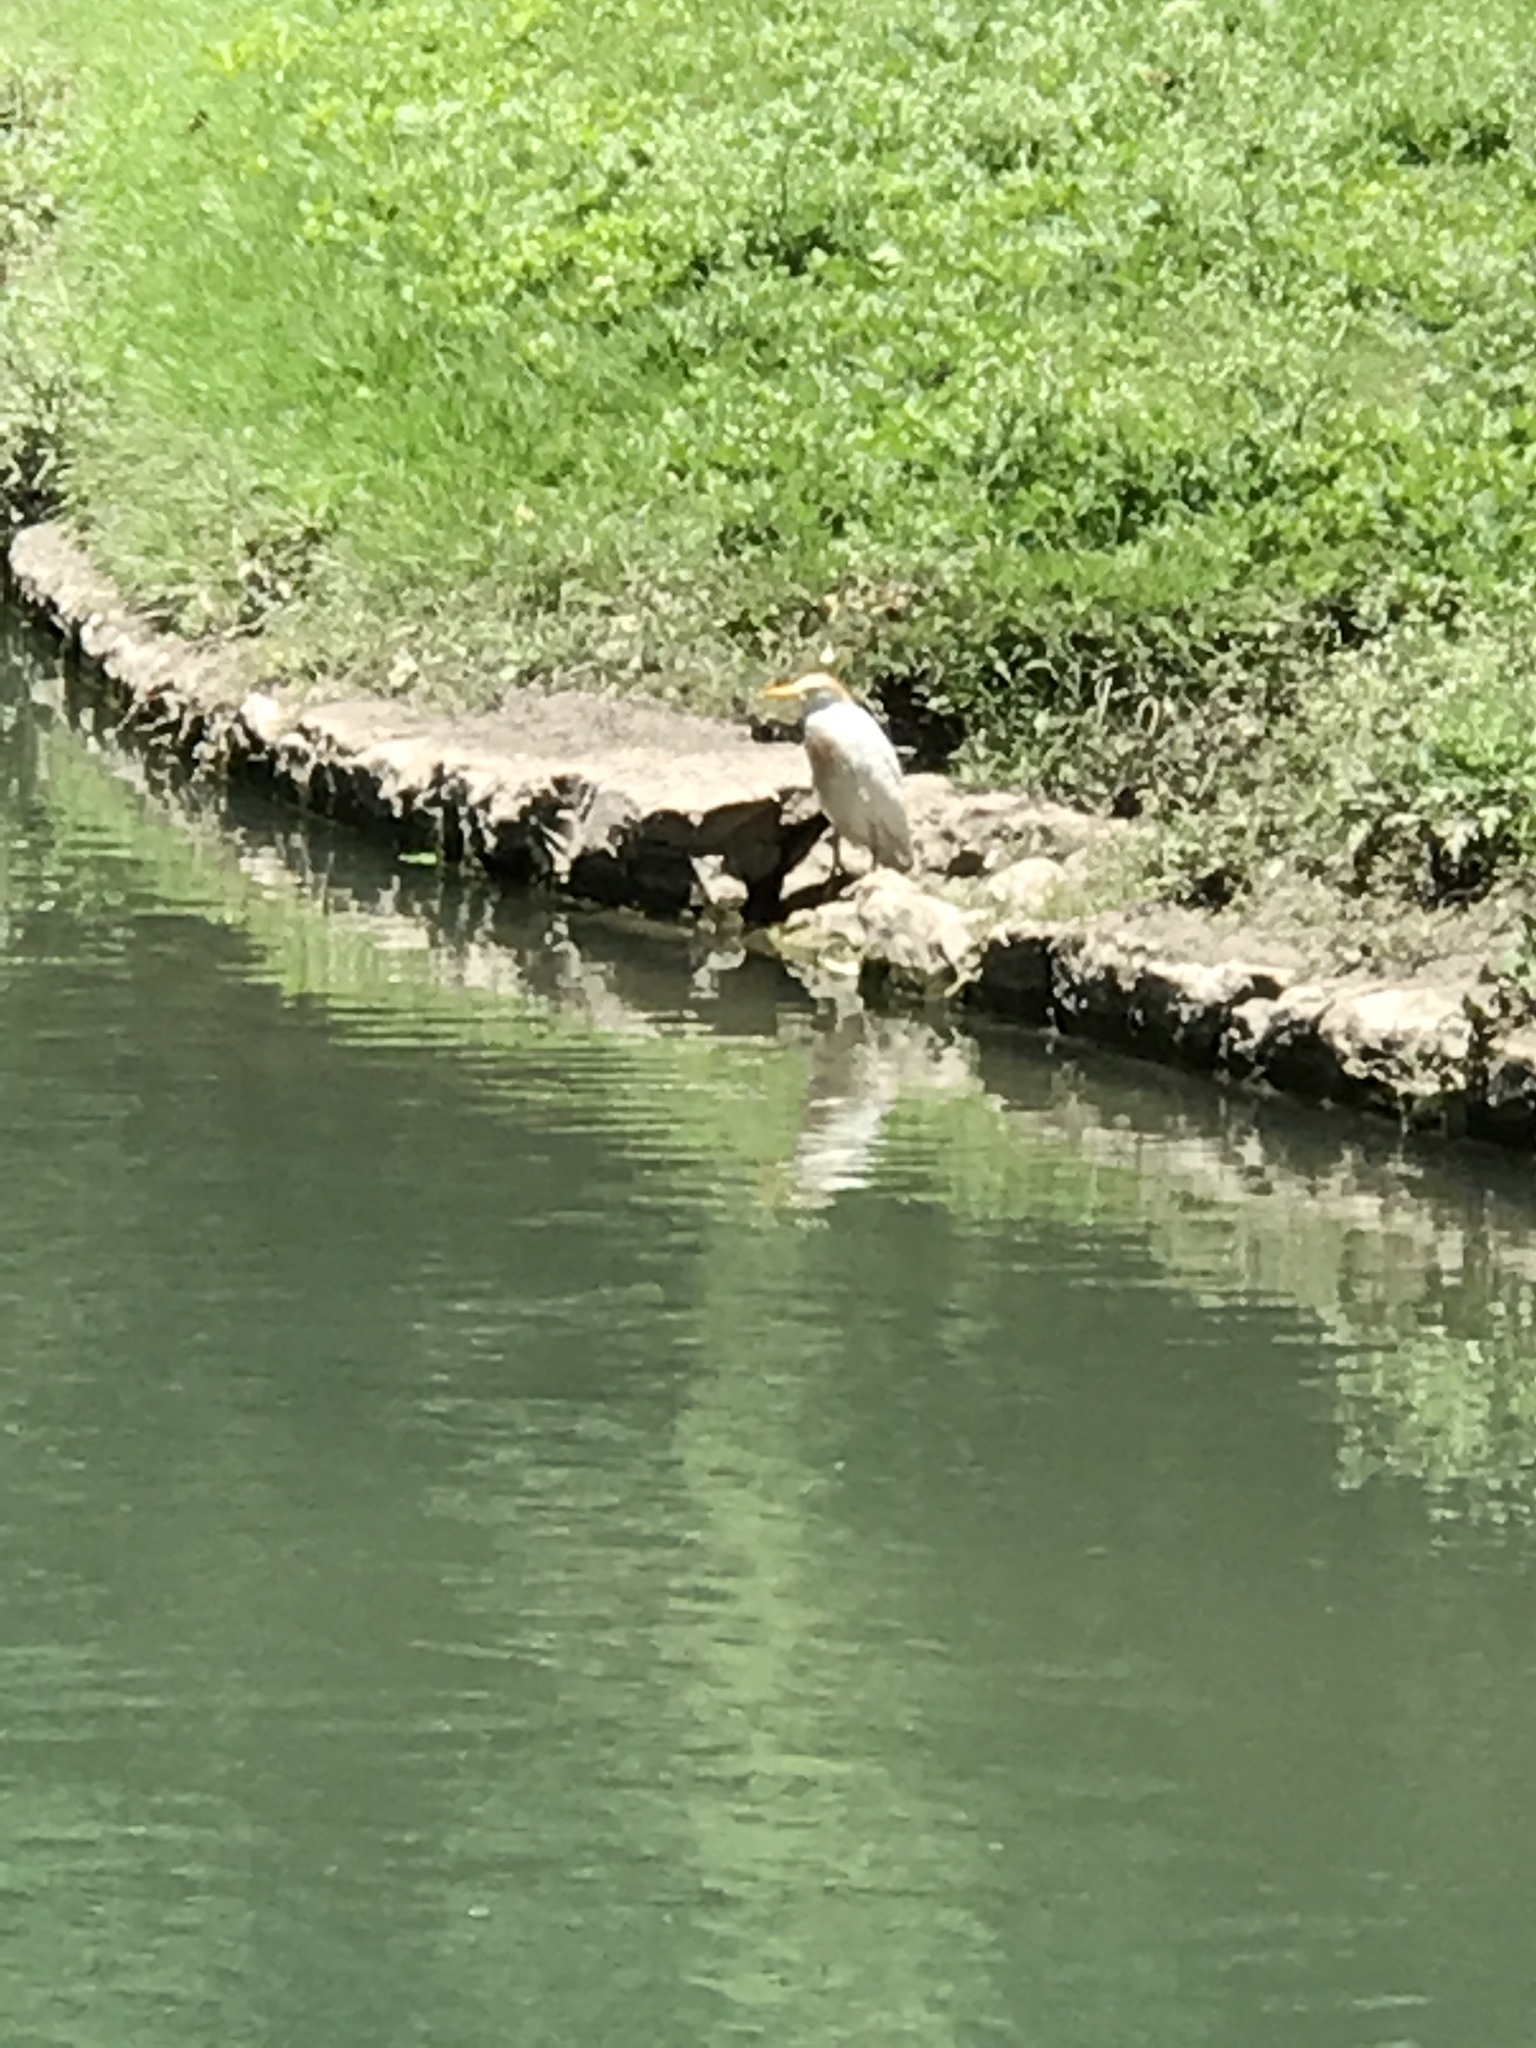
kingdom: Animalia
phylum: Chordata
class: Aves
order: Pelecaniformes
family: Ardeidae
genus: Bubulcus
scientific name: Bubulcus ibis
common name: Cattle egret
